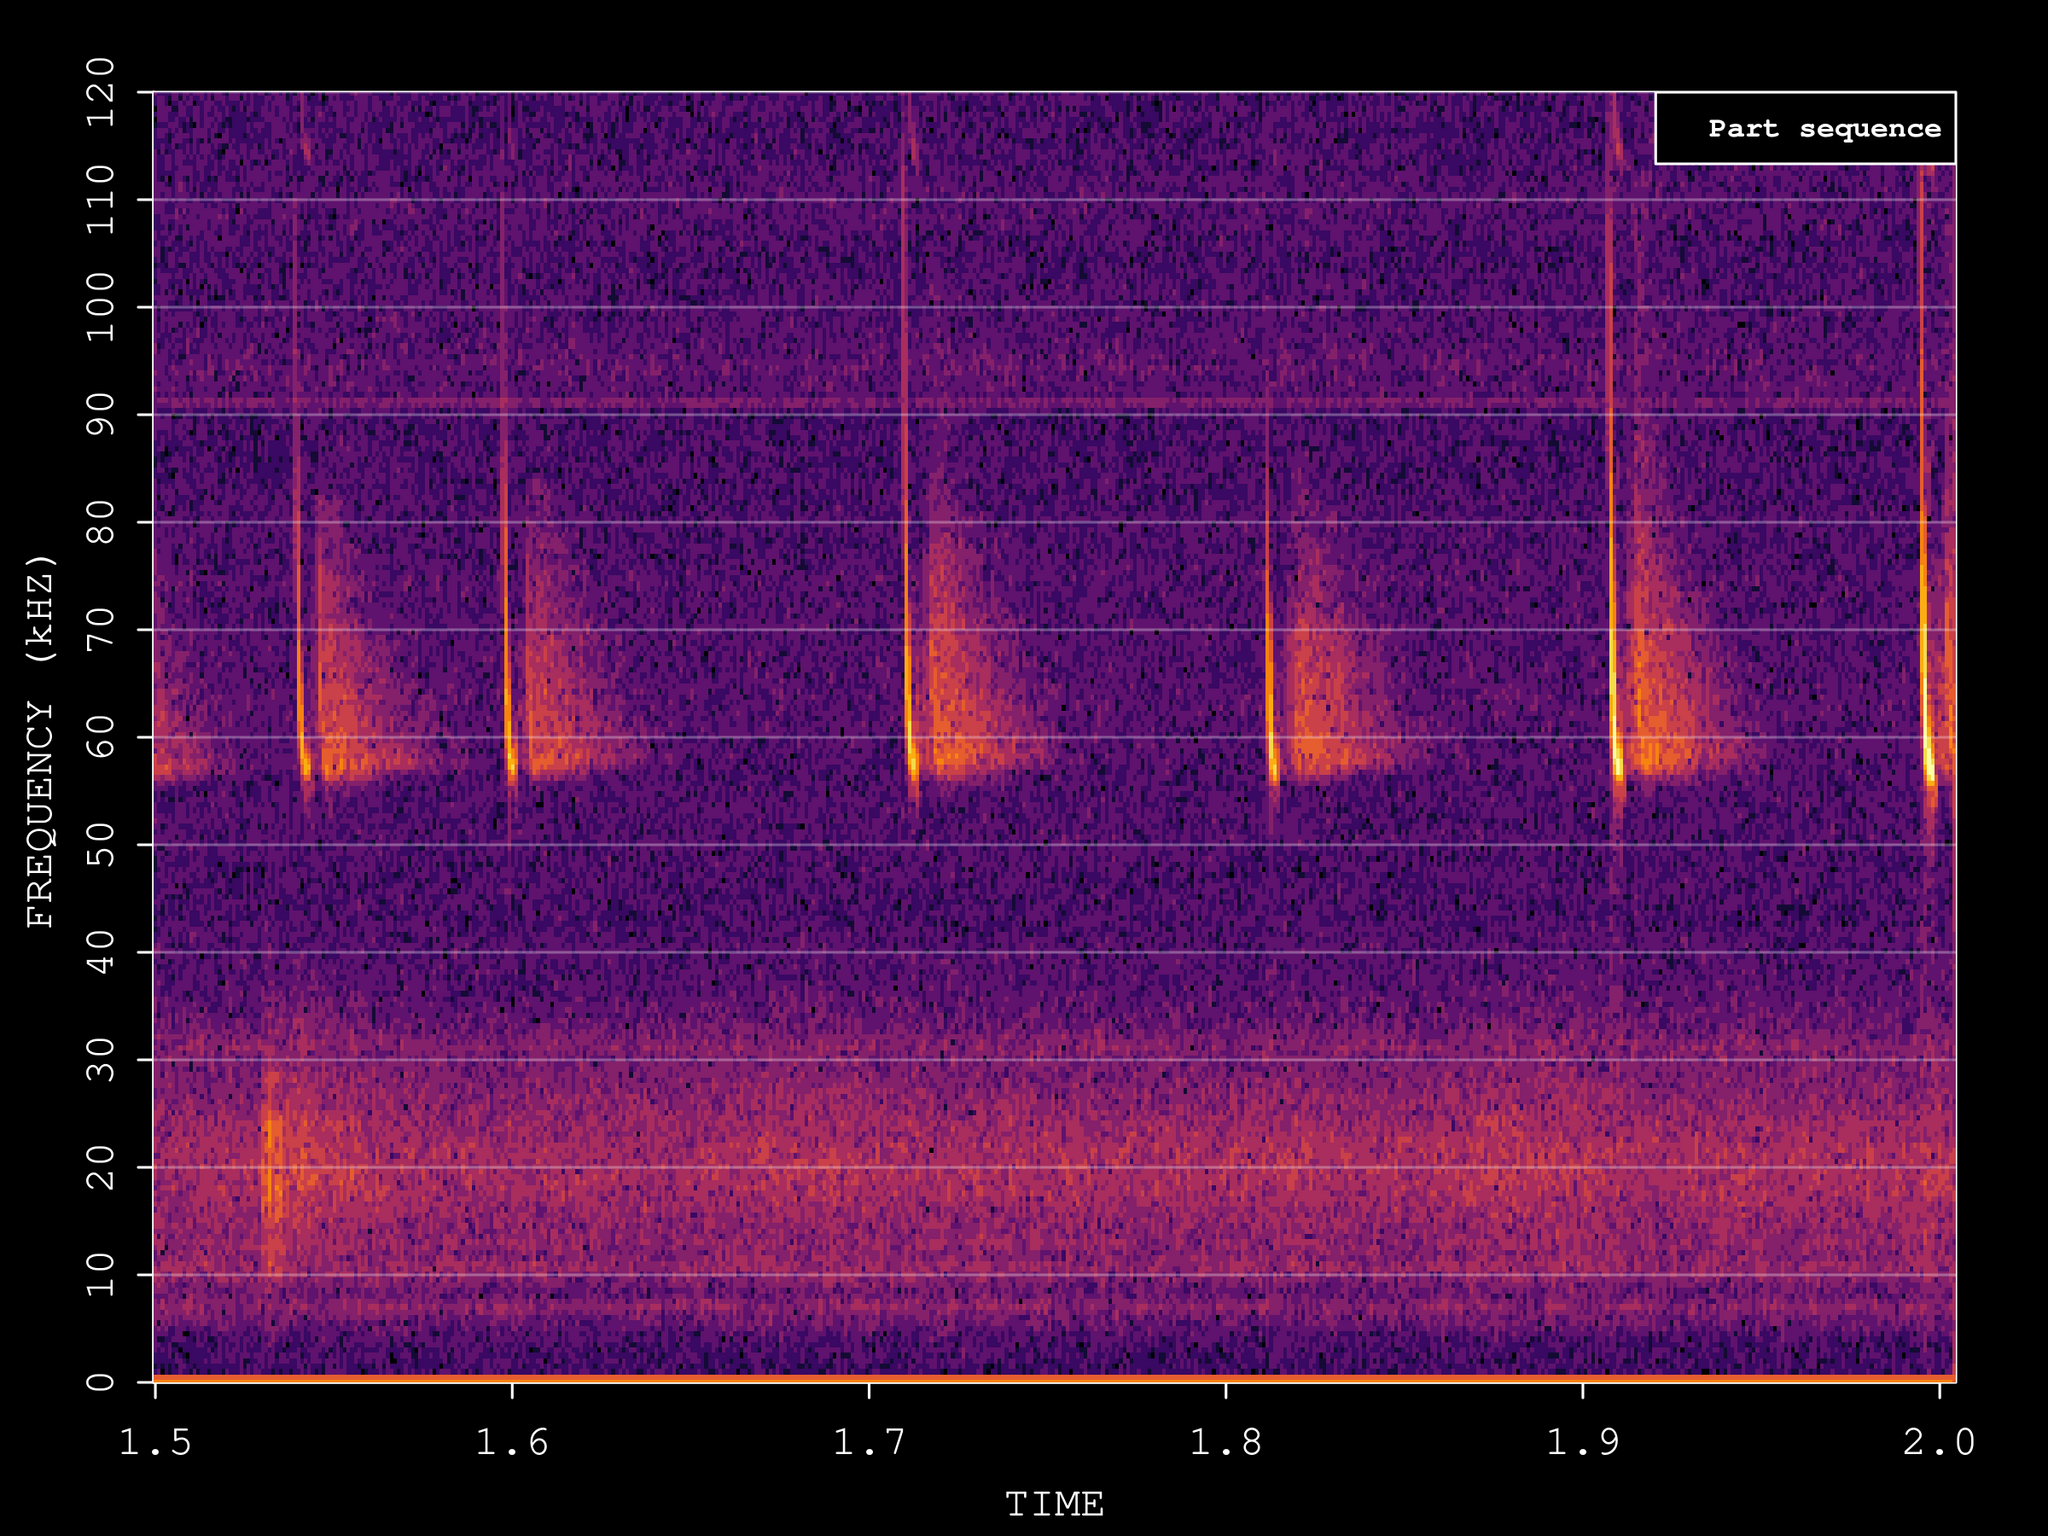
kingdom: Animalia
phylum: Chordata
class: Mammalia
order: Chiroptera
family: Vespertilionidae
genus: Pipistrellus
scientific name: Pipistrellus pygmaeus
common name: Soprano pipistrelle
